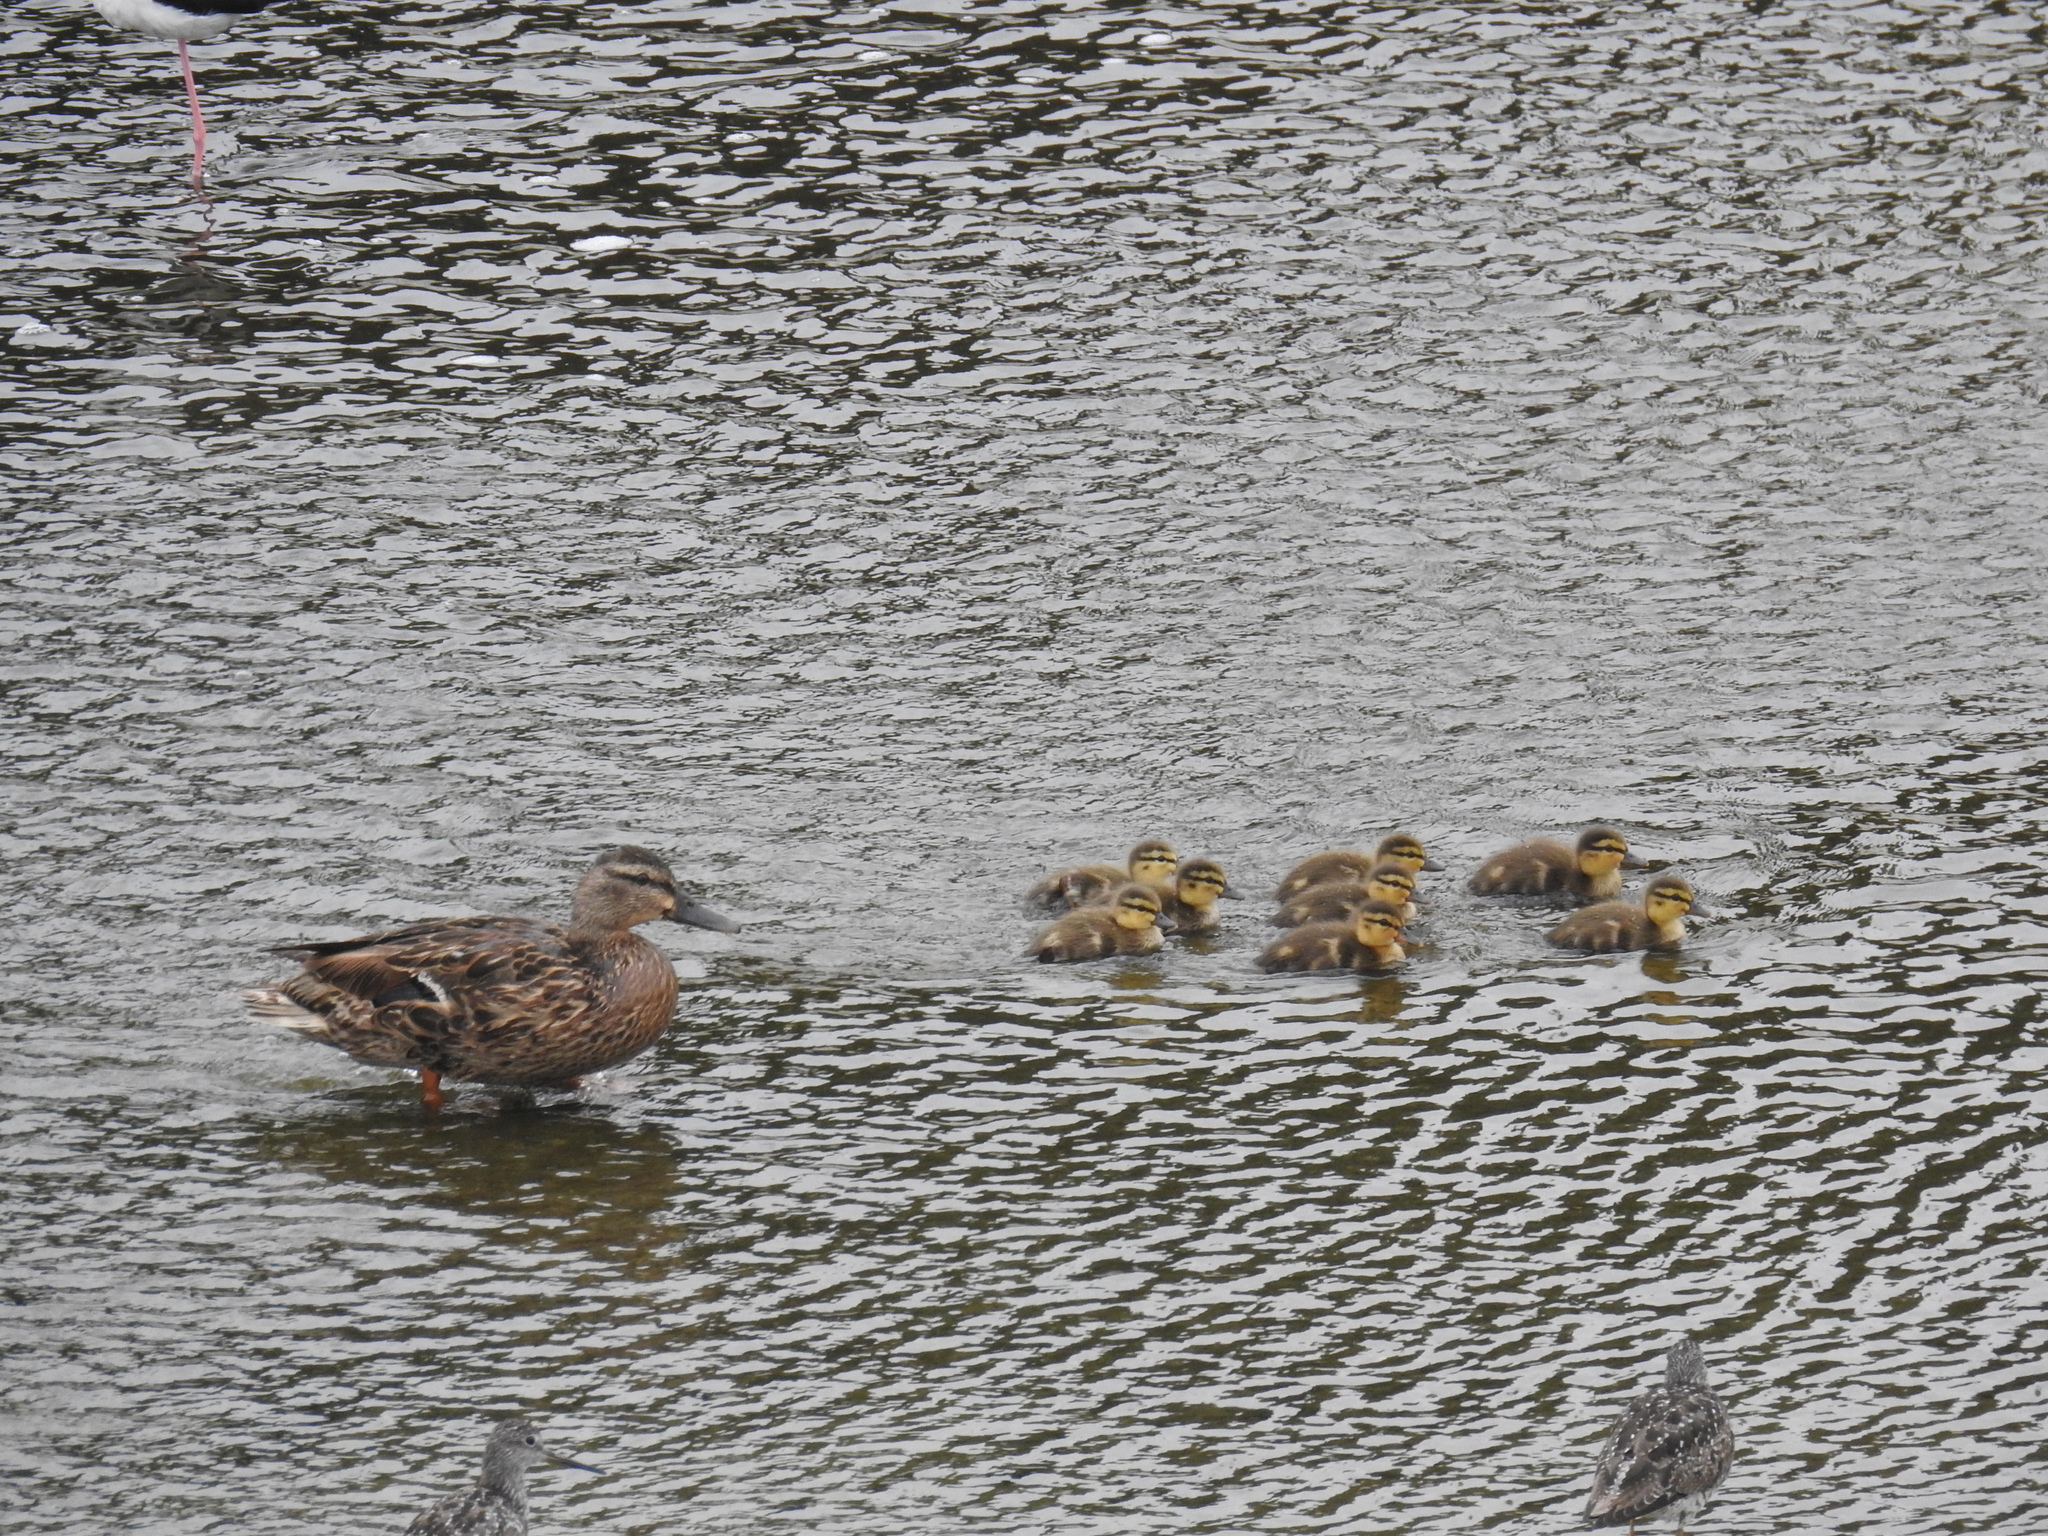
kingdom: Animalia
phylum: Chordata
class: Aves
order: Anseriformes
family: Anatidae
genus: Anas
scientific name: Anas platyrhynchos
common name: Mallard
